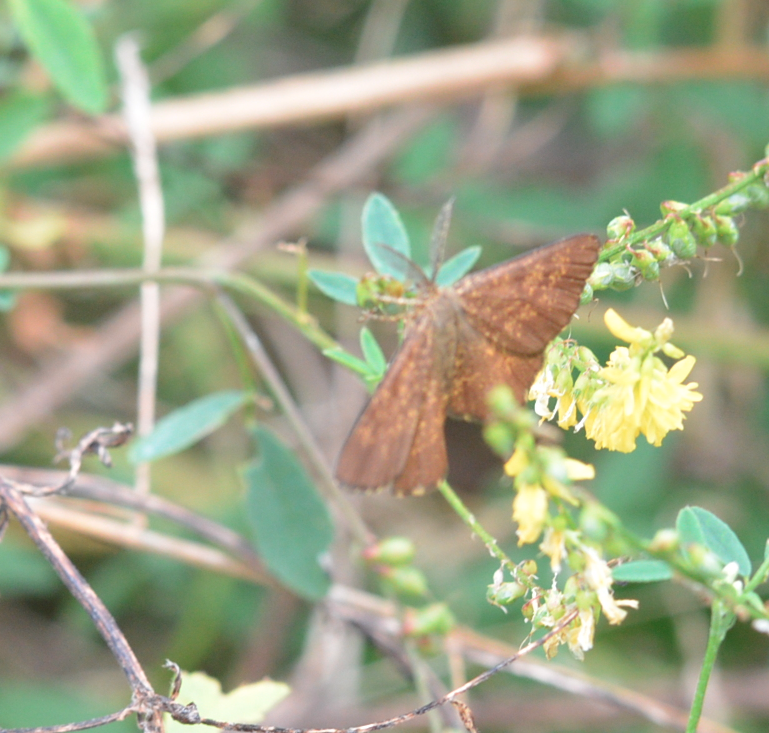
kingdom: Animalia
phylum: Arthropoda
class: Insecta
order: Lepidoptera
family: Geometridae
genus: Ematurga
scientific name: Ematurga atomaria
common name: Common heath
